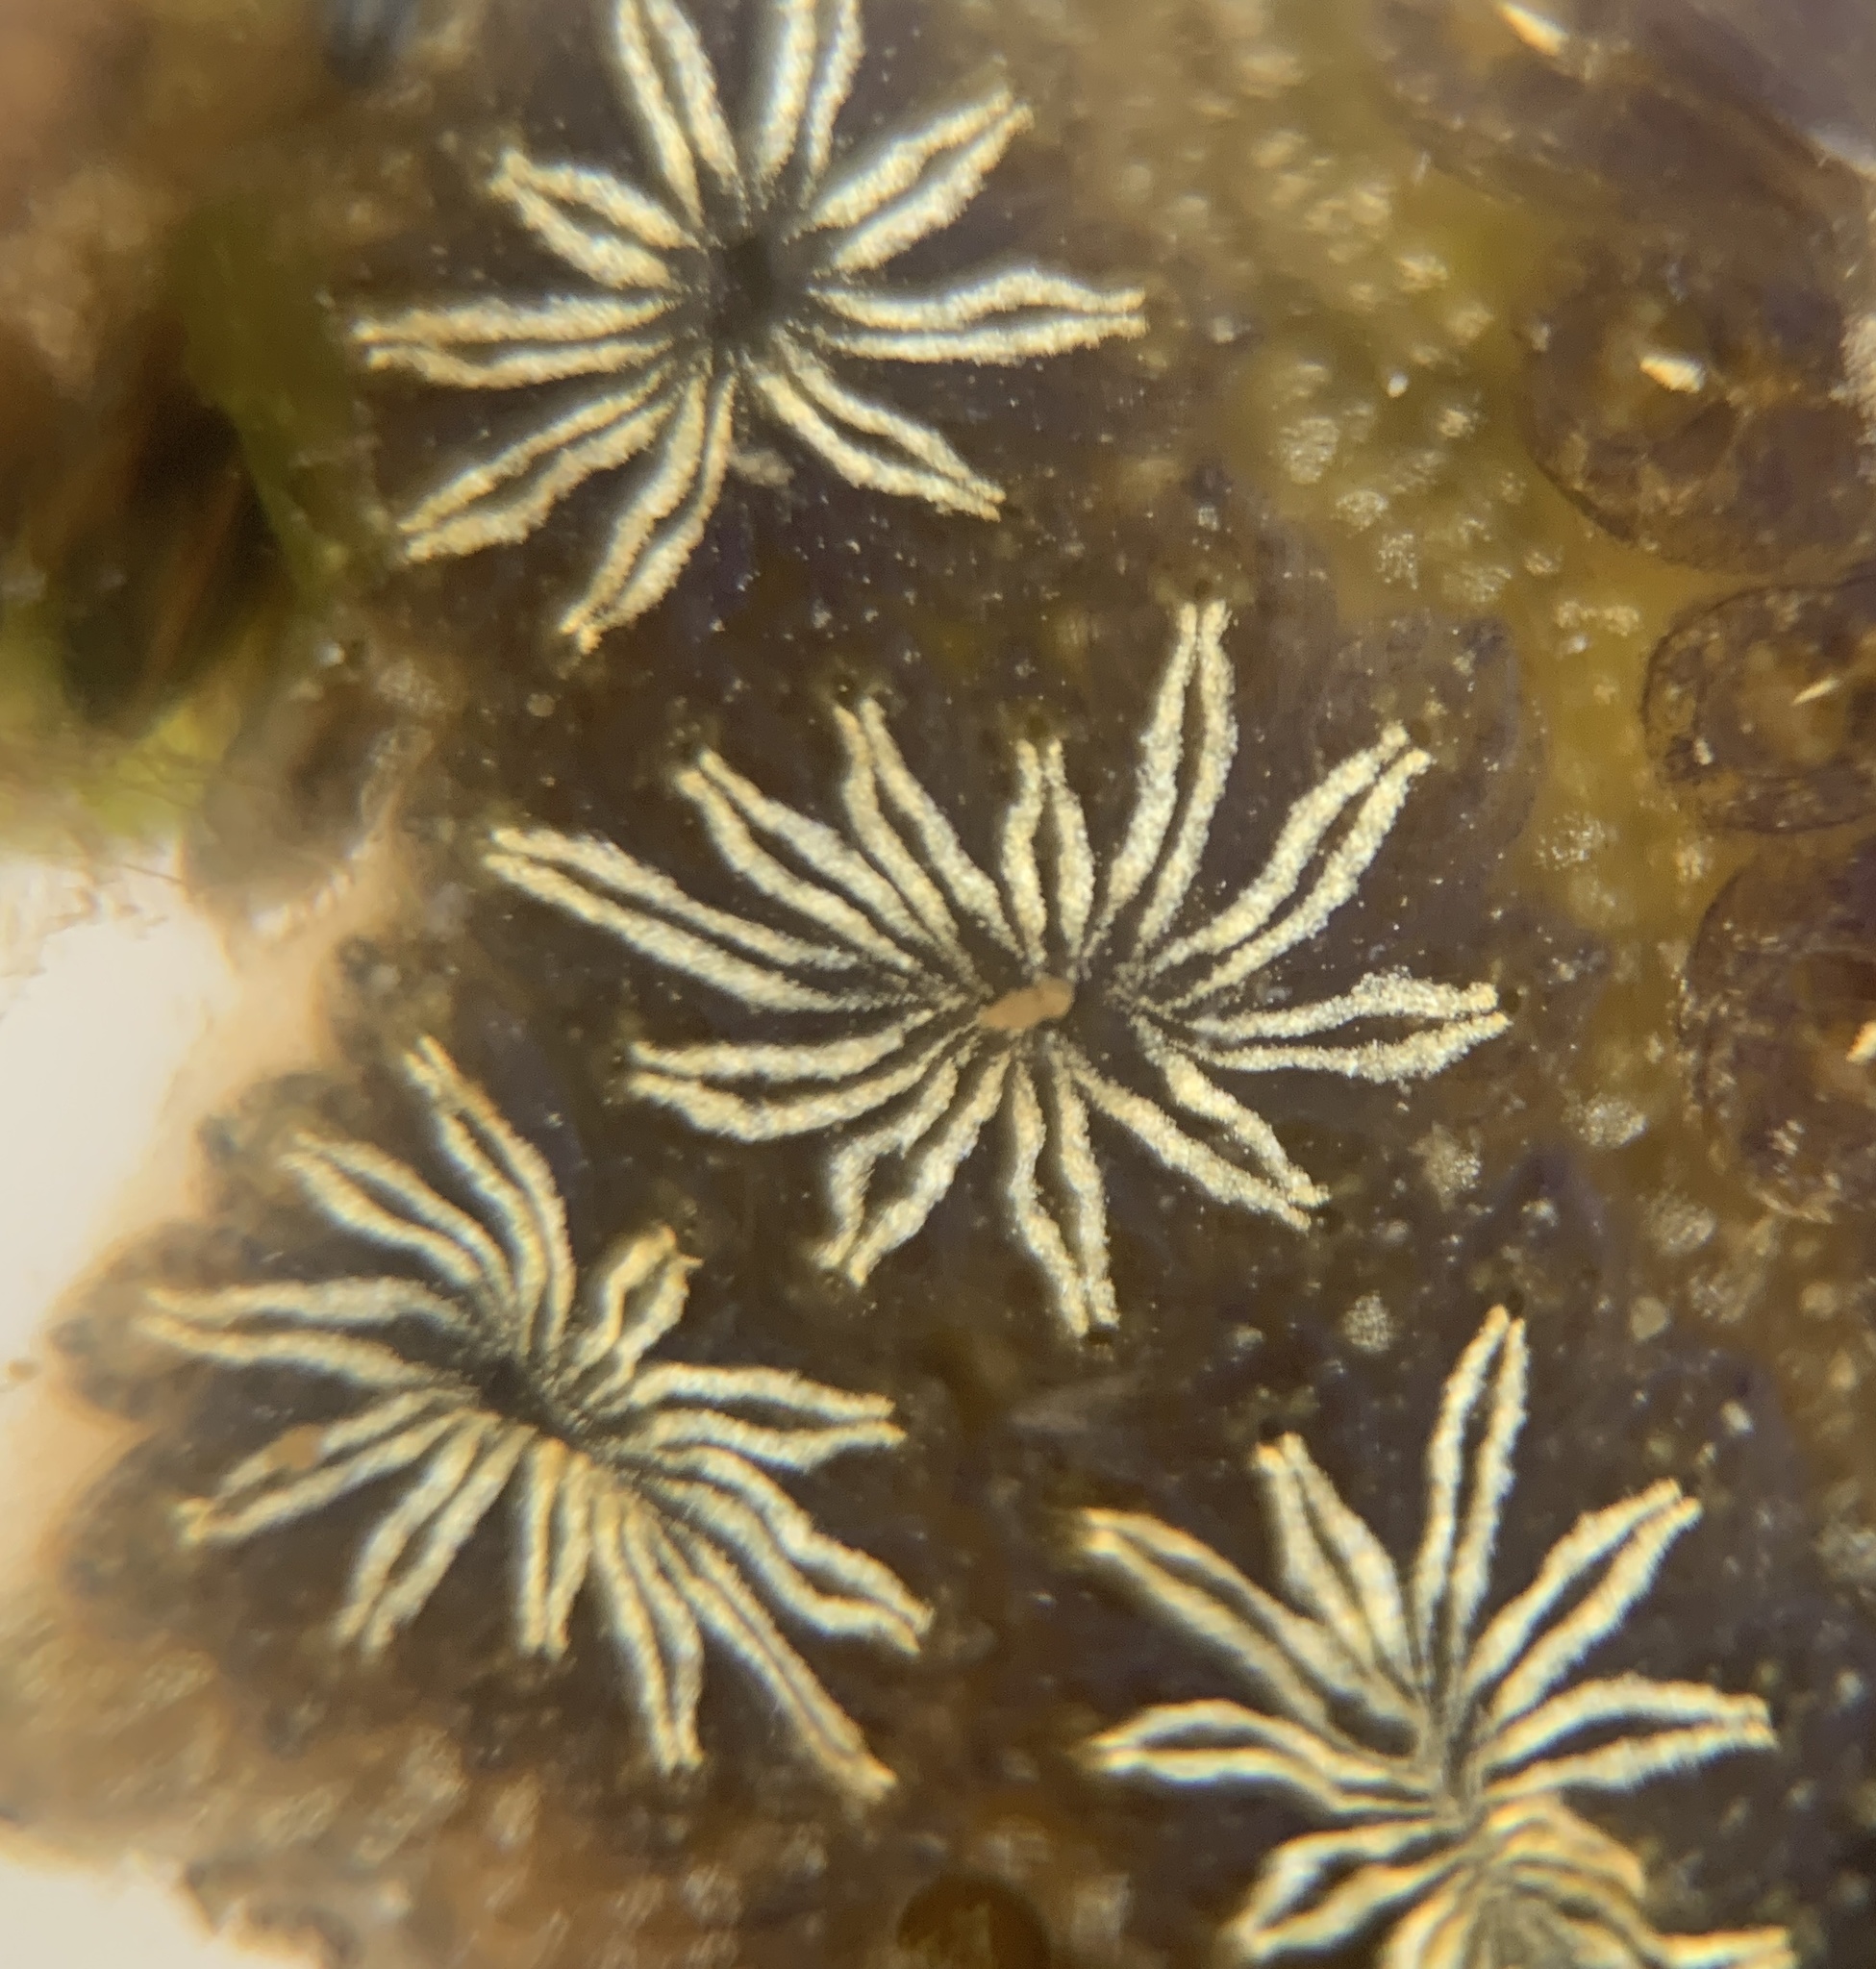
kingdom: Animalia
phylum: Chordata
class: Ascidiacea
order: Stolidobranchia
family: Styelidae
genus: Botryllus
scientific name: Botryllus schlosseri
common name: Golden star tunicate
